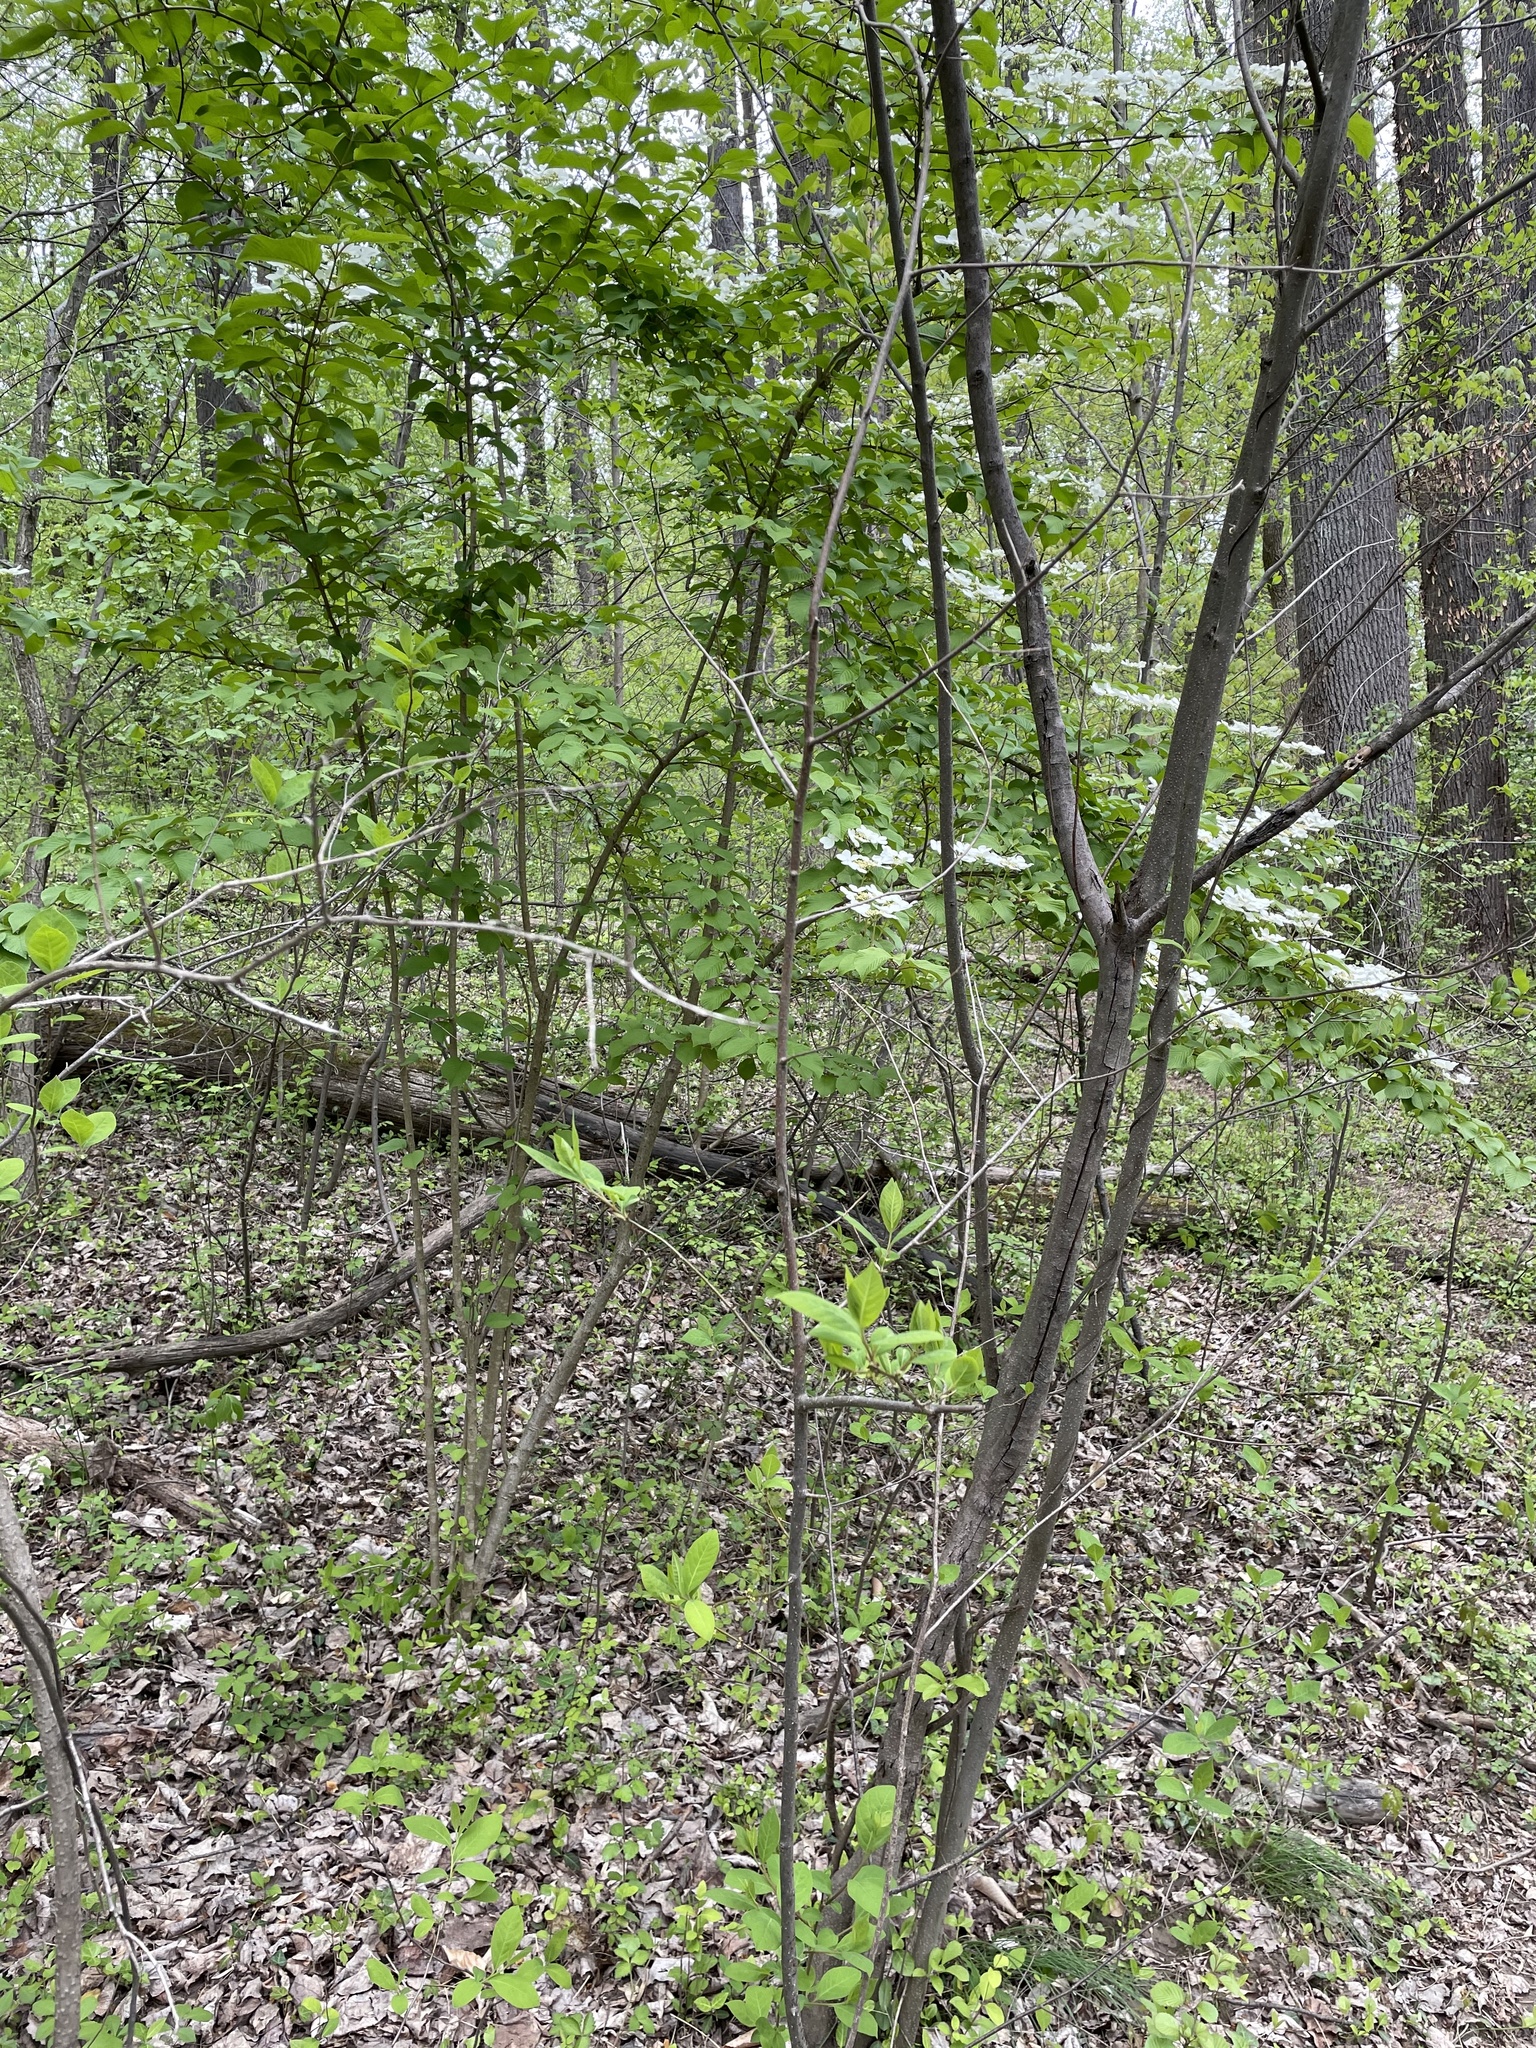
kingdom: Plantae
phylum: Tracheophyta
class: Magnoliopsida
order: Dipsacales
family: Viburnaceae
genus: Viburnum
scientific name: Viburnum plicatum
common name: Japanese snowball
